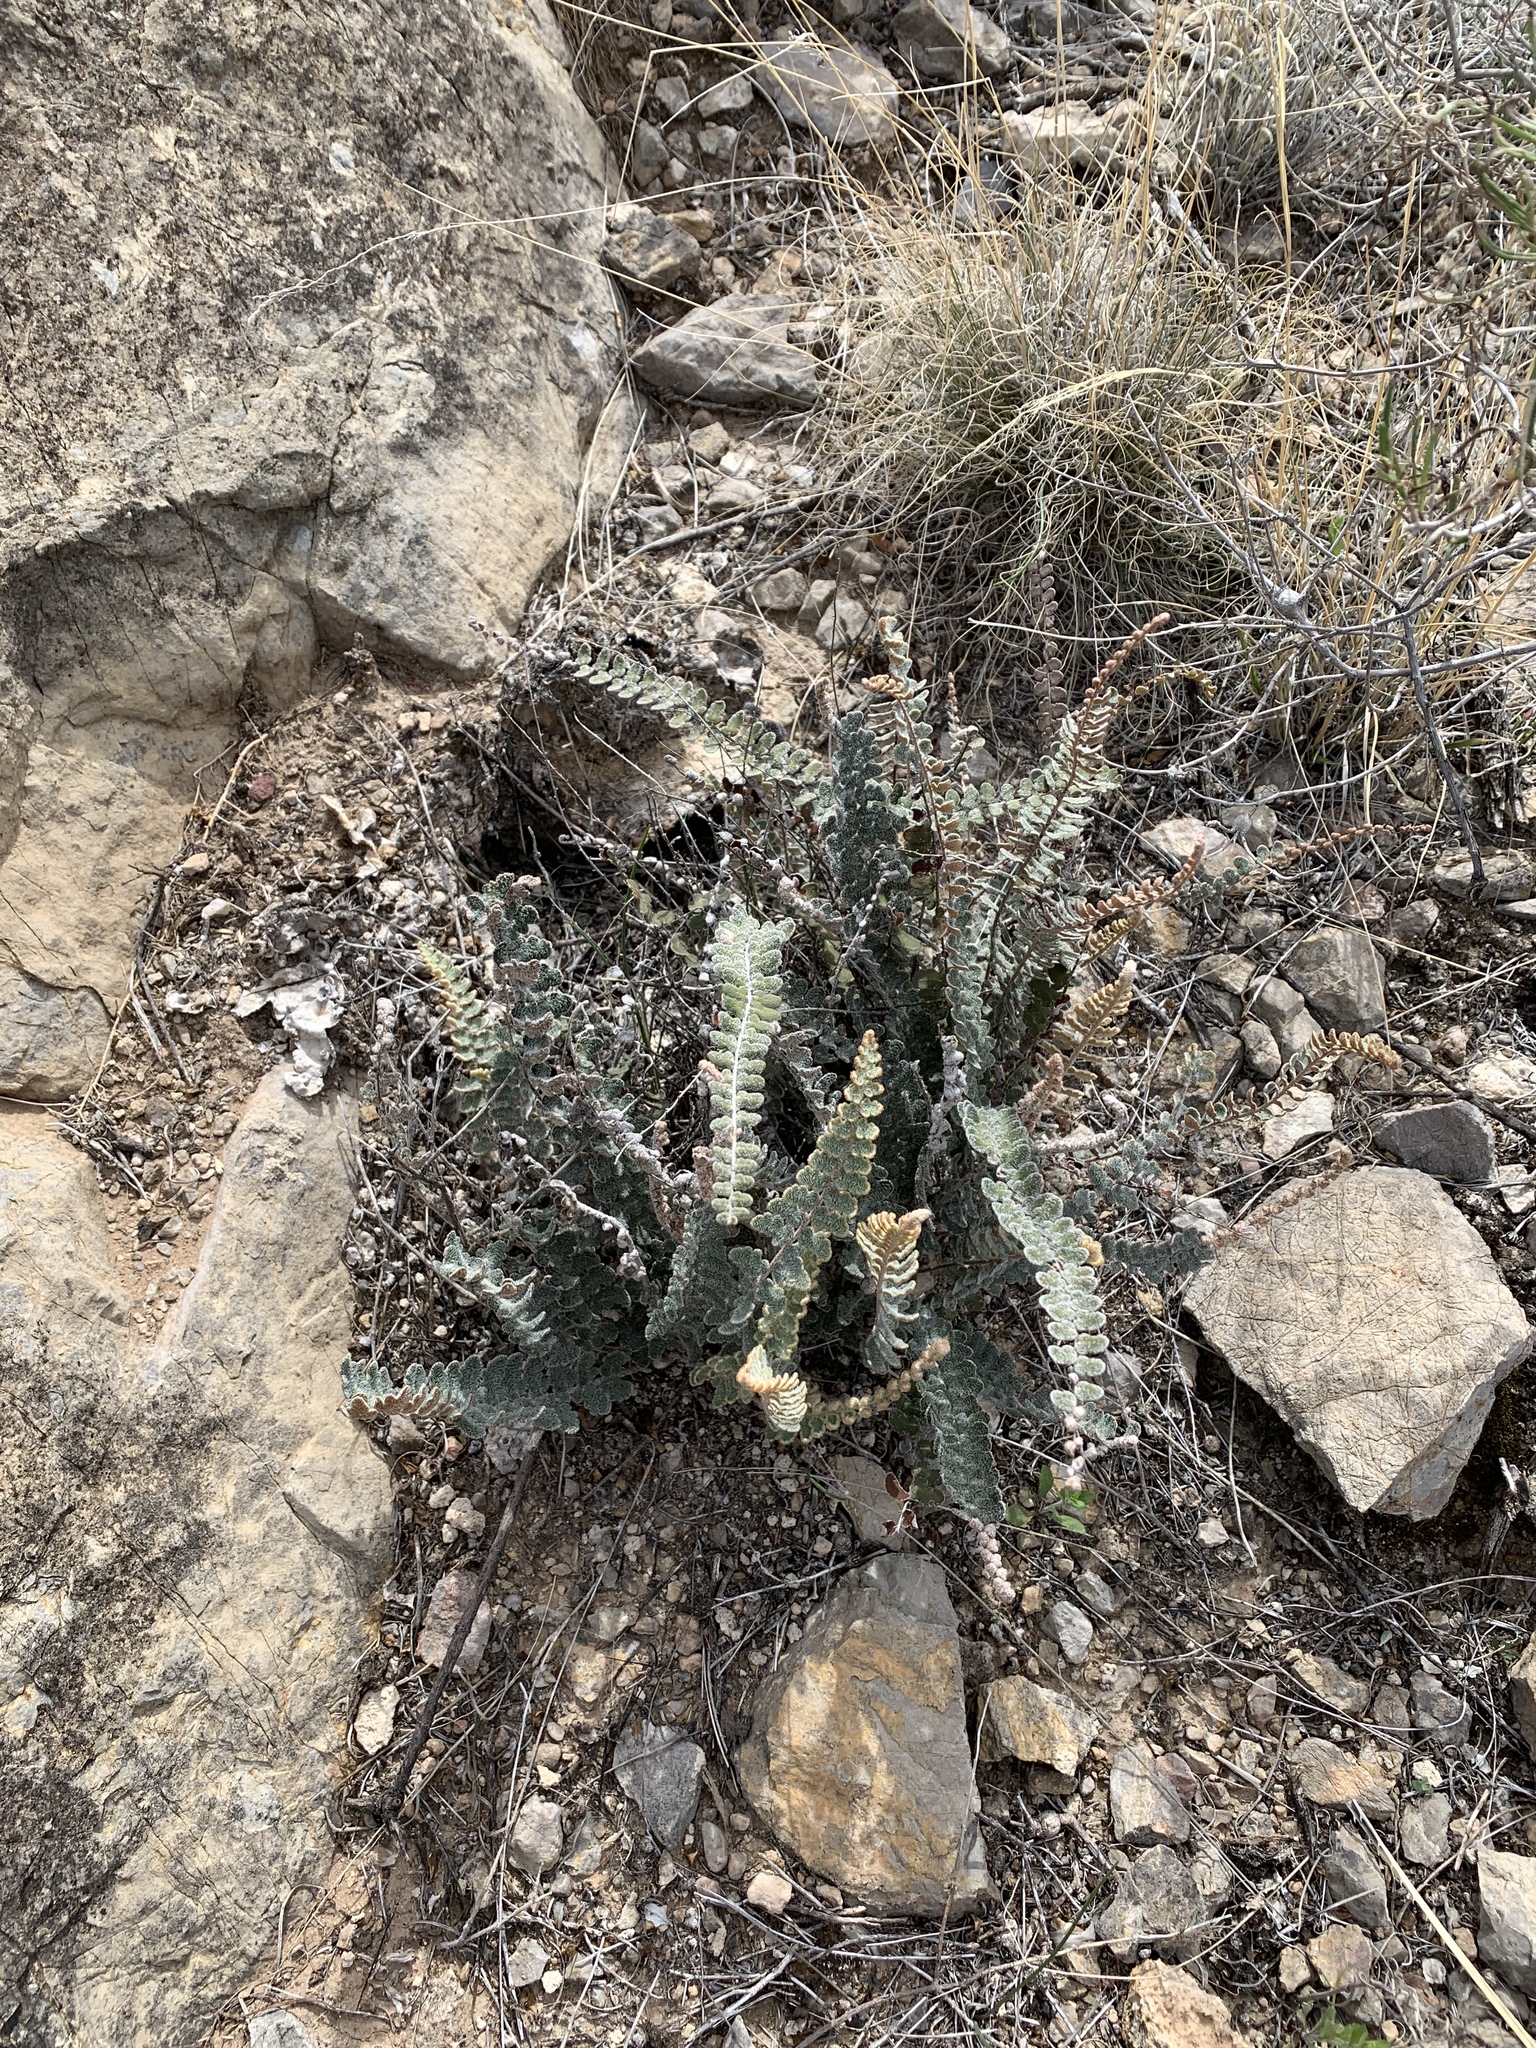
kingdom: Plantae
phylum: Tracheophyta
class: Polypodiopsida
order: Polypodiales
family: Pteridaceae
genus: Astrolepis
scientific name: Astrolepis integerrima
